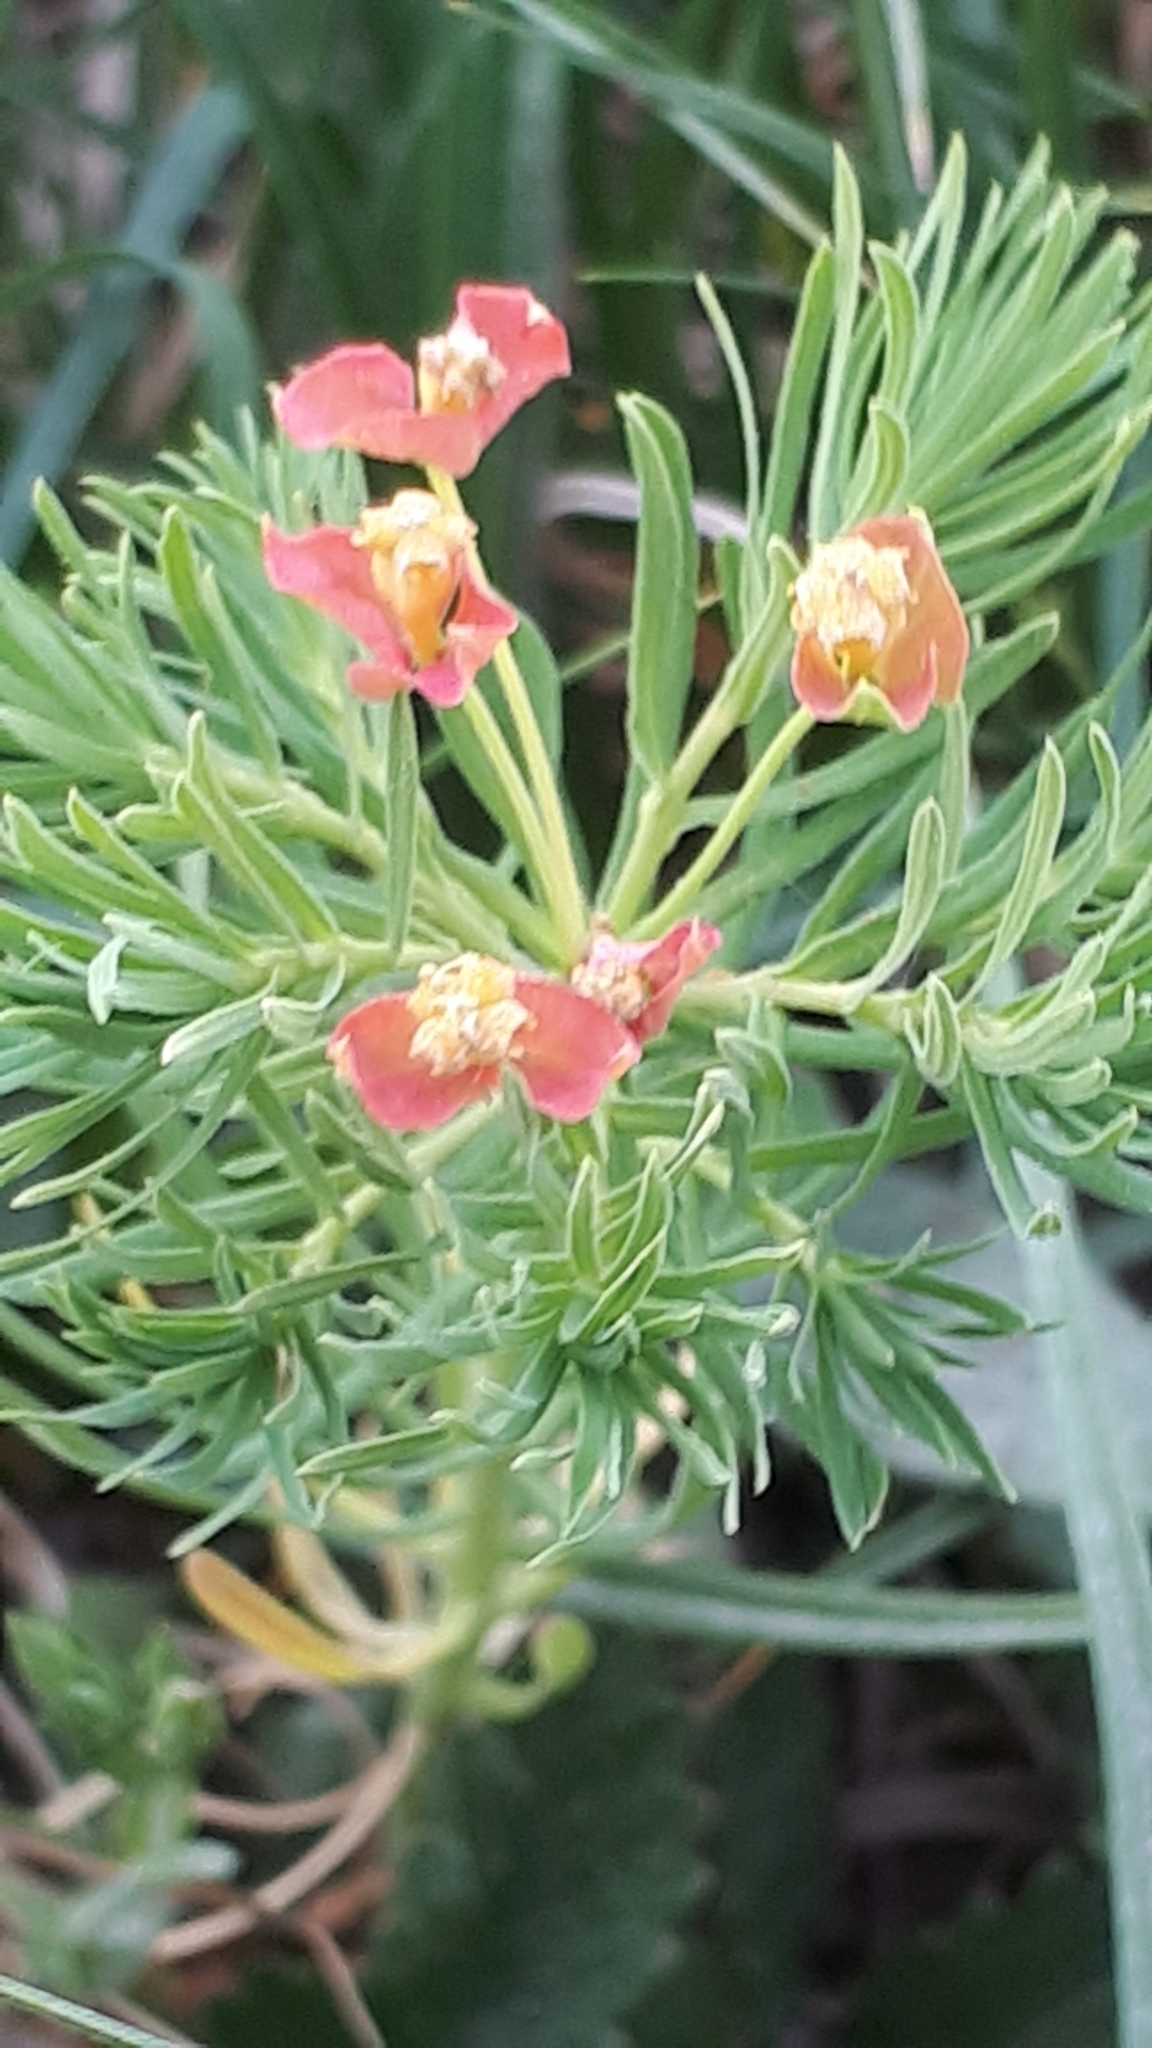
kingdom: Plantae
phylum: Tracheophyta
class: Magnoliopsida
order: Malpighiales
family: Euphorbiaceae
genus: Euphorbia
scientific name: Euphorbia cyparissias
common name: Cypress spurge
